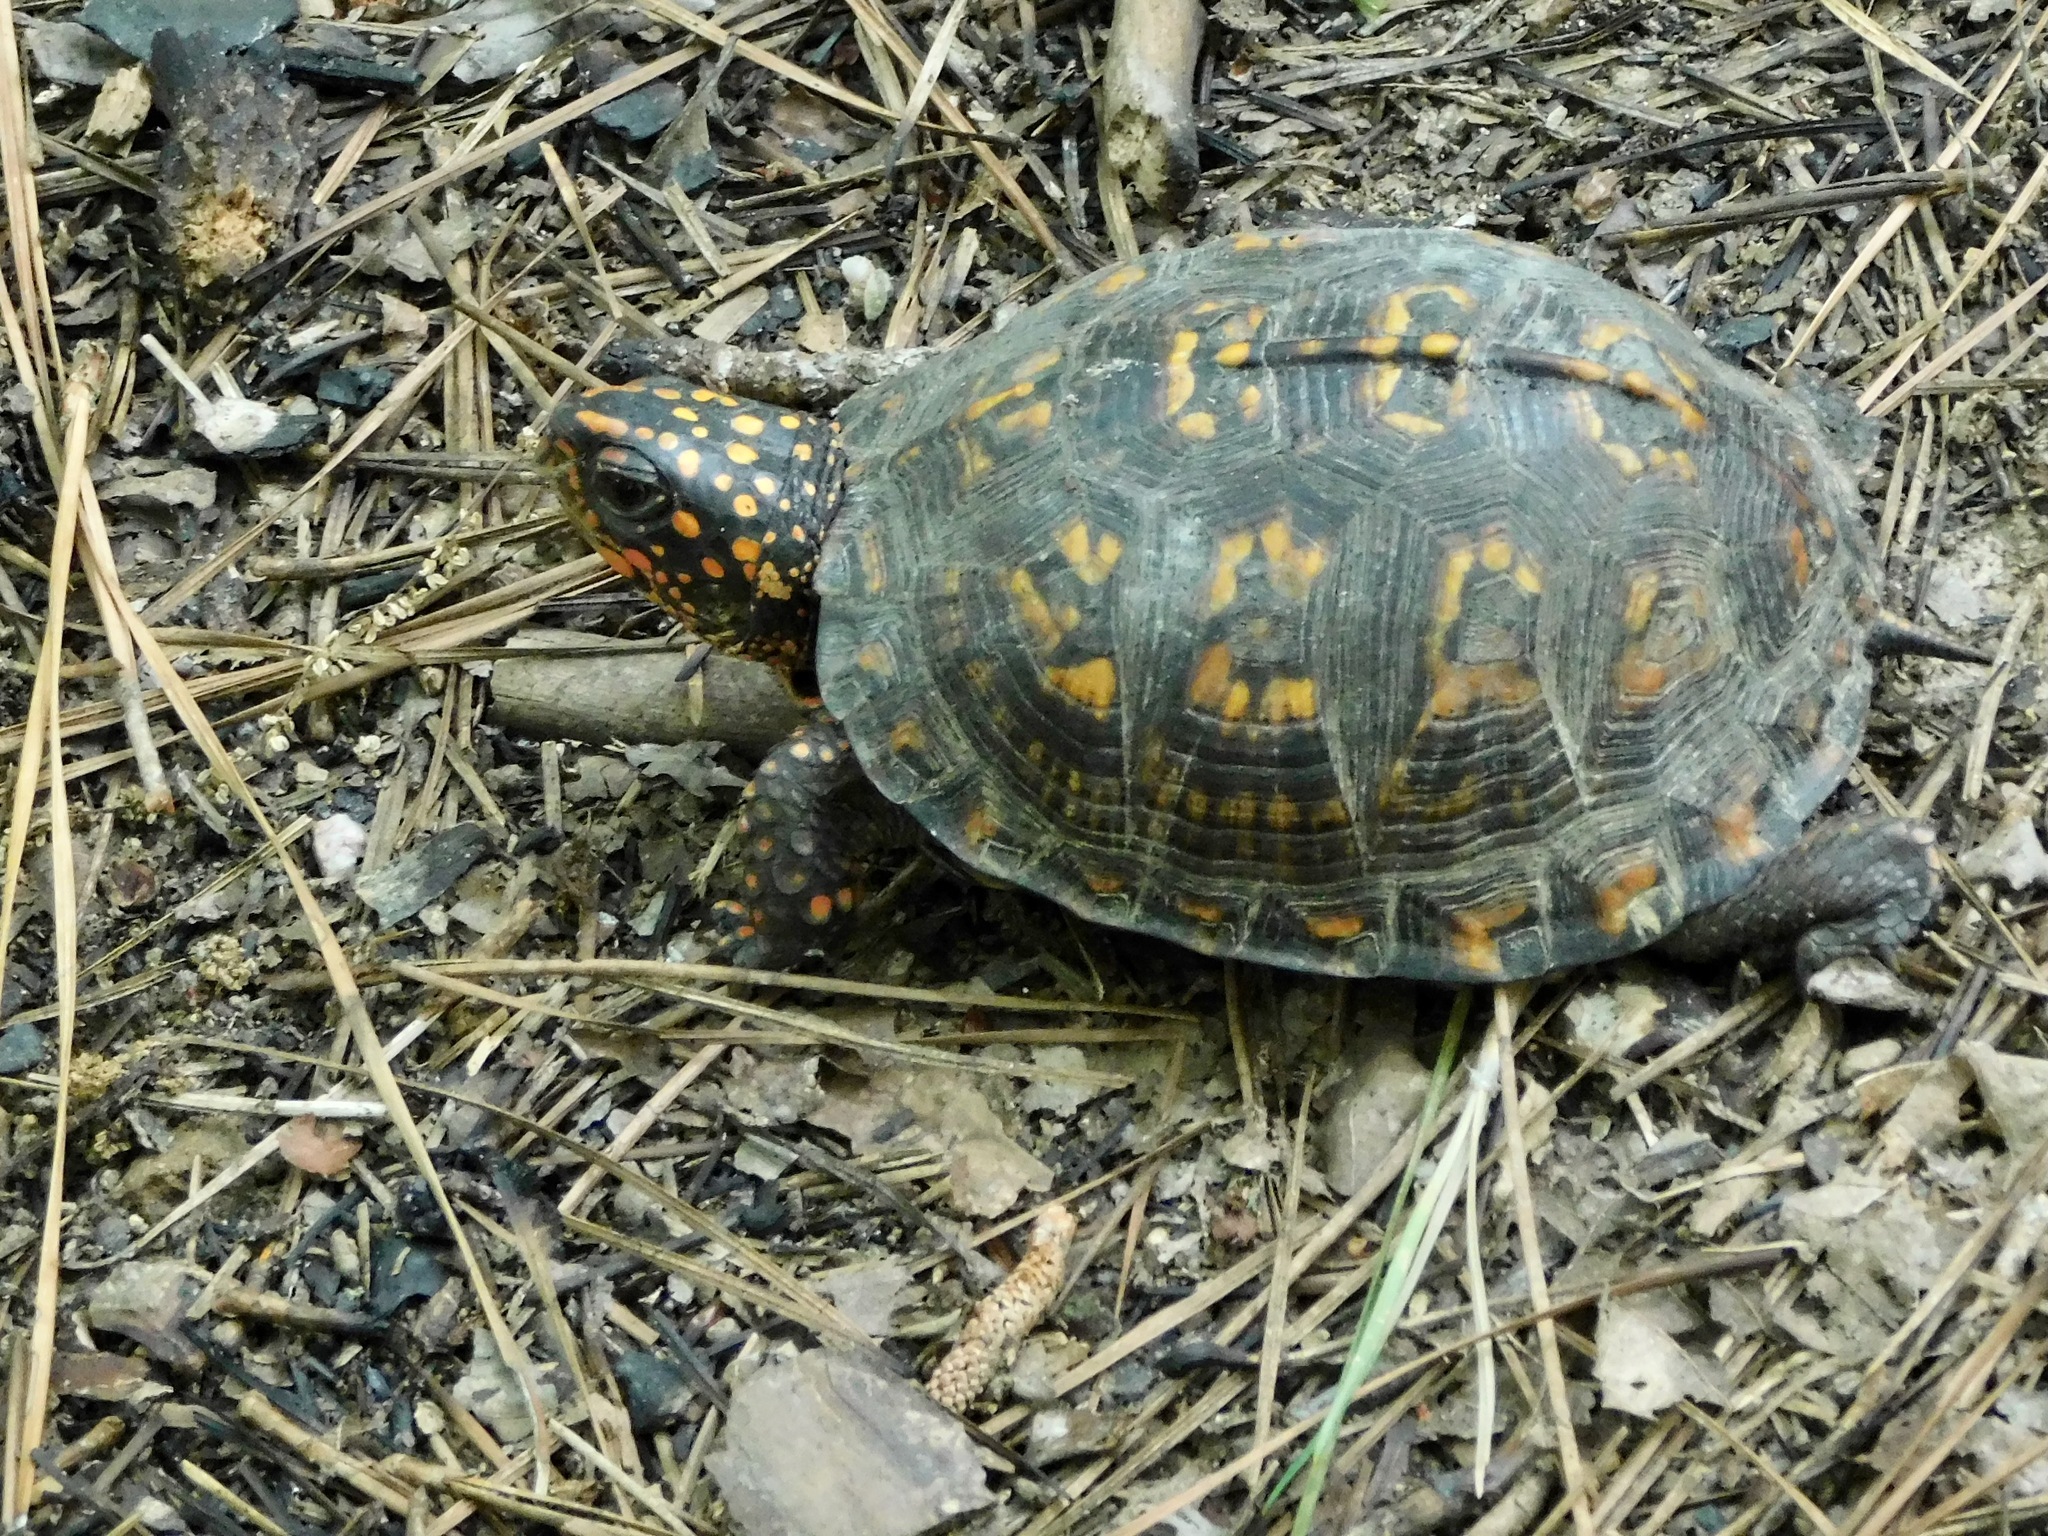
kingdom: Animalia
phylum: Chordata
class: Testudines
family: Emydidae
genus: Terrapene
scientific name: Terrapene carolina
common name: Common box turtle
